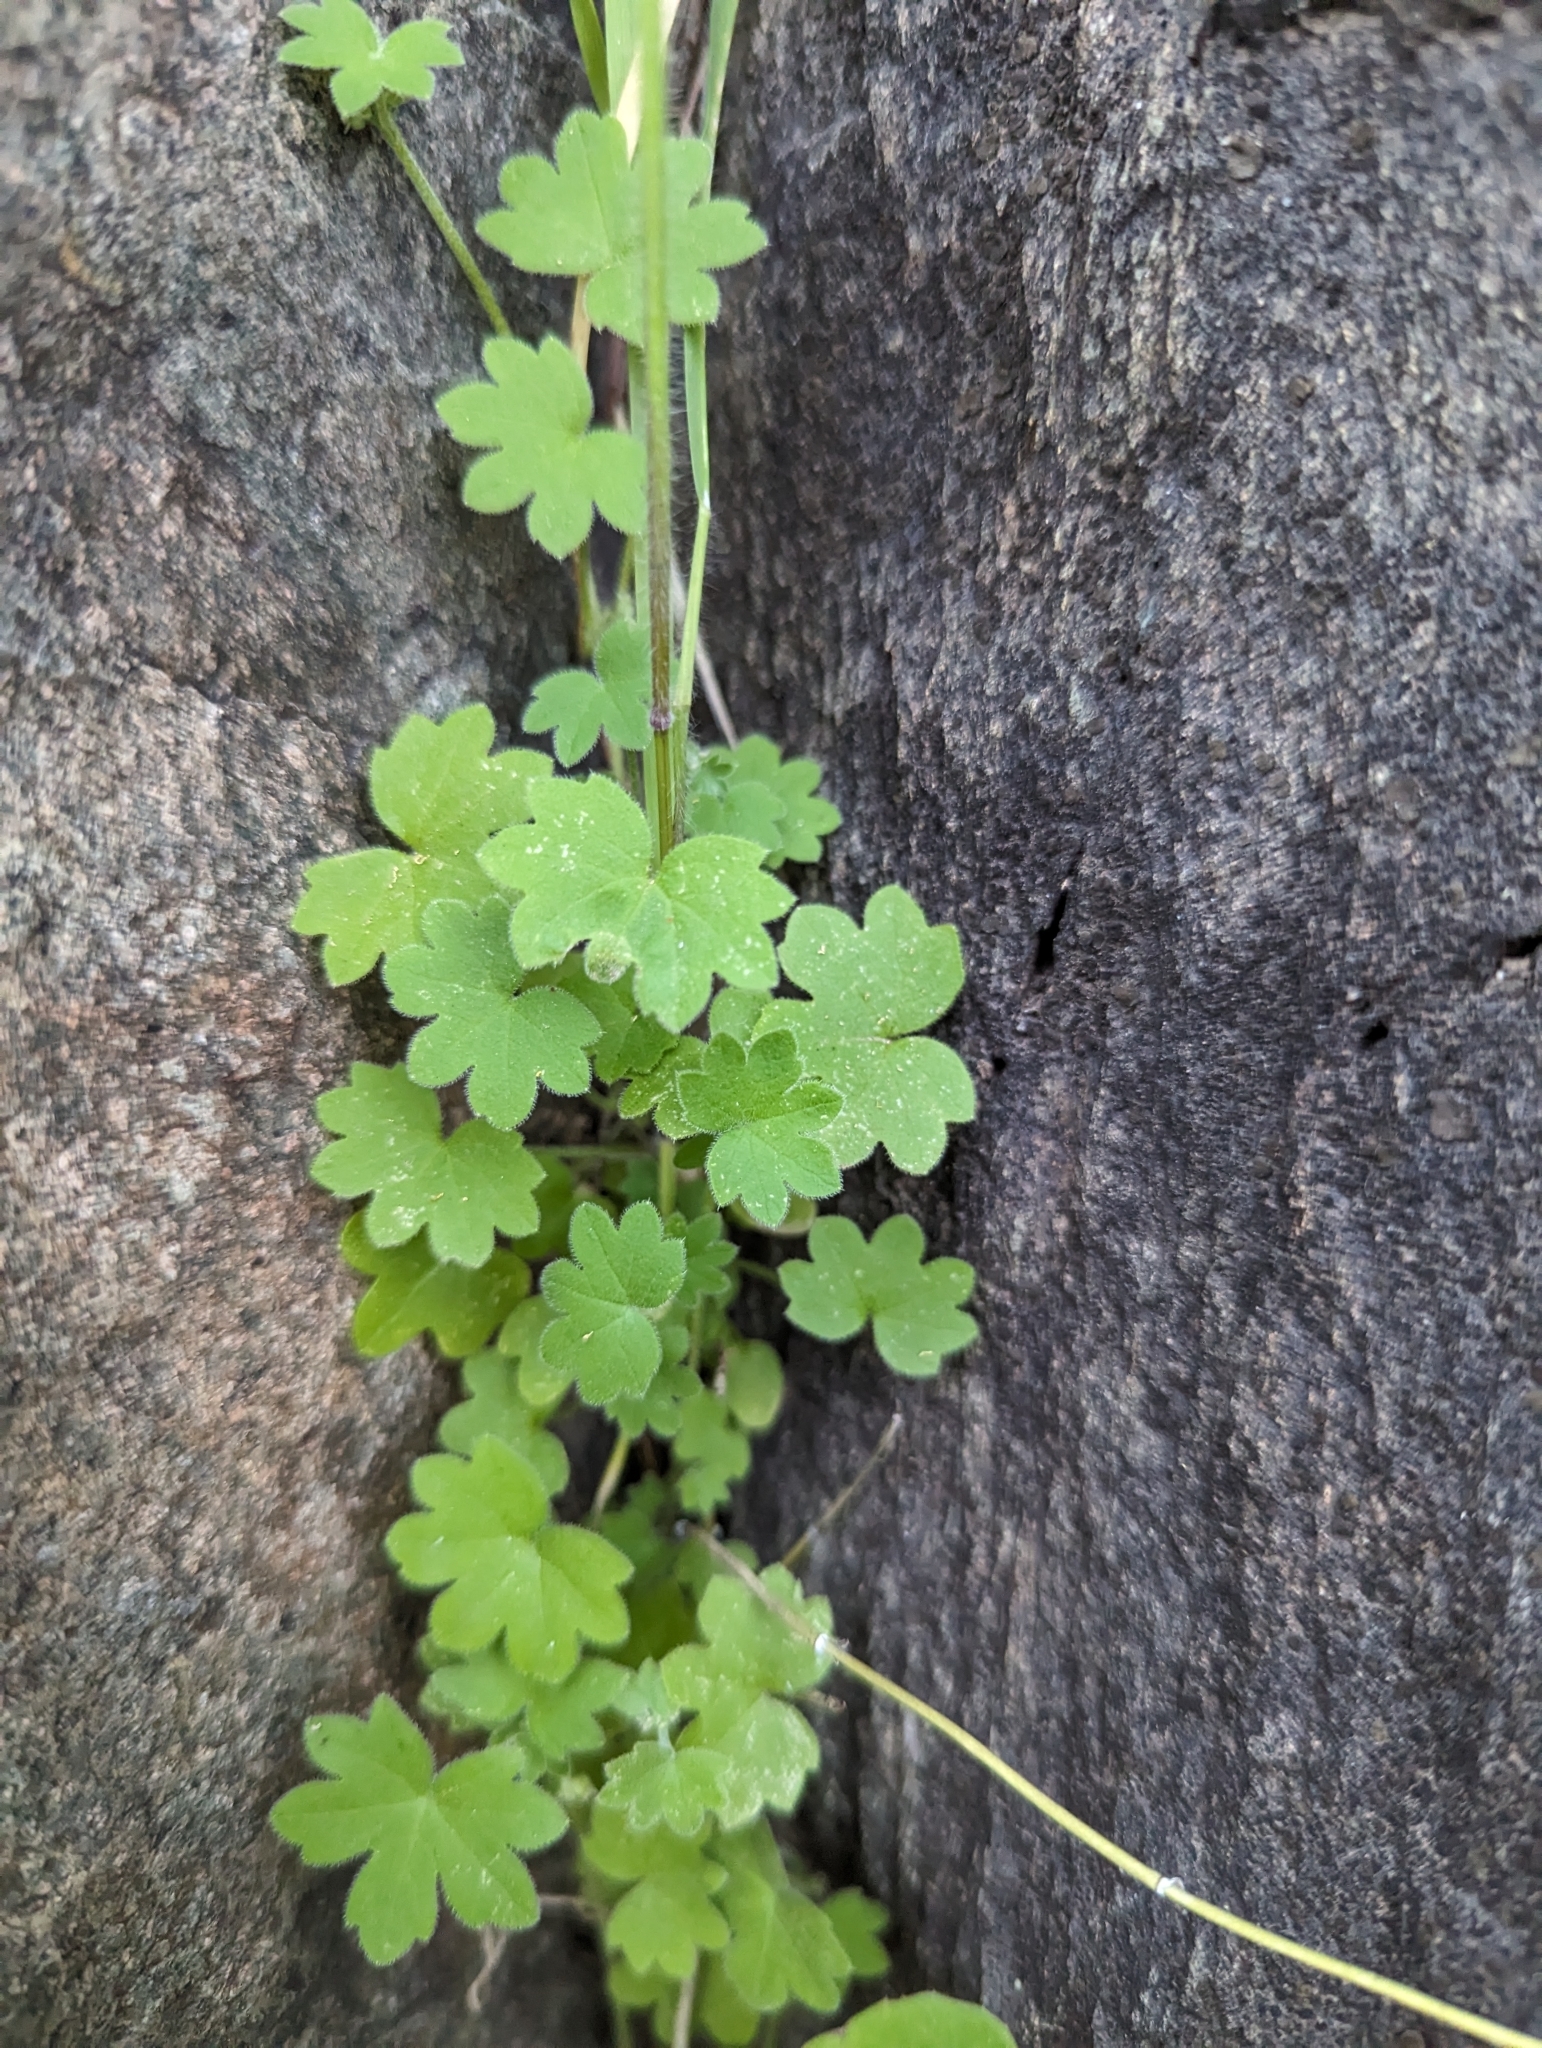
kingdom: Plantae
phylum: Tracheophyta
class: Magnoliopsida
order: Apiales
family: Apiaceae
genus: Bowlesia
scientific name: Bowlesia incana
